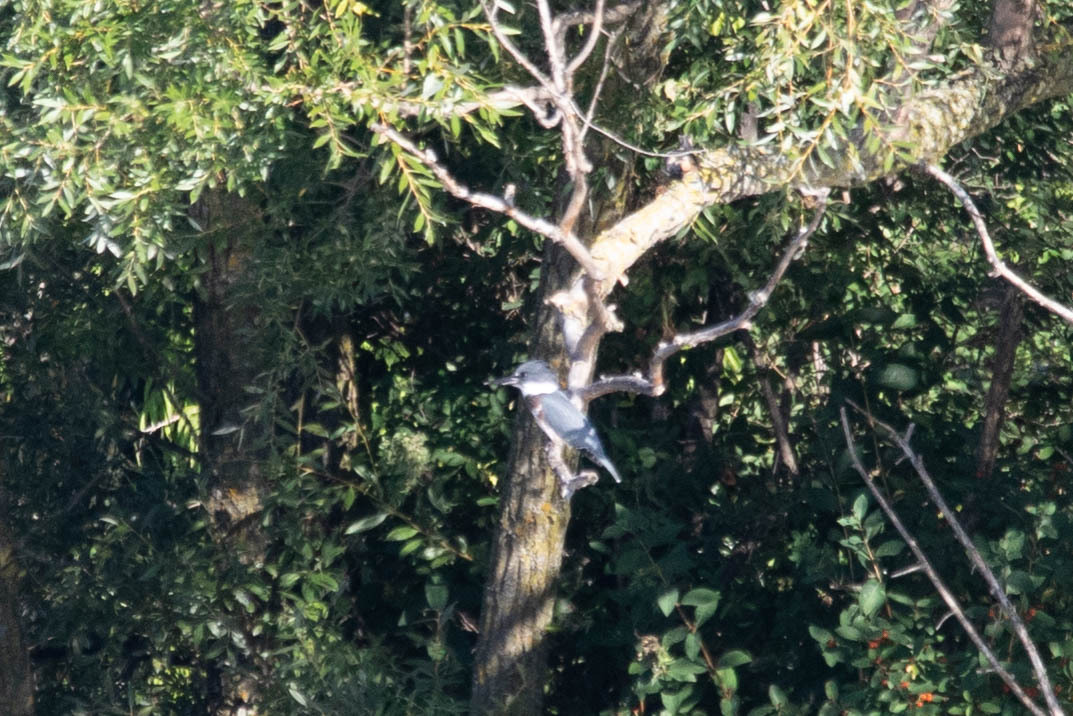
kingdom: Animalia
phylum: Chordata
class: Aves
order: Coraciiformes
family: Alcedinidae
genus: Megaceryle
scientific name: Megaceryle alcyon
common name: Belted kingfisher
